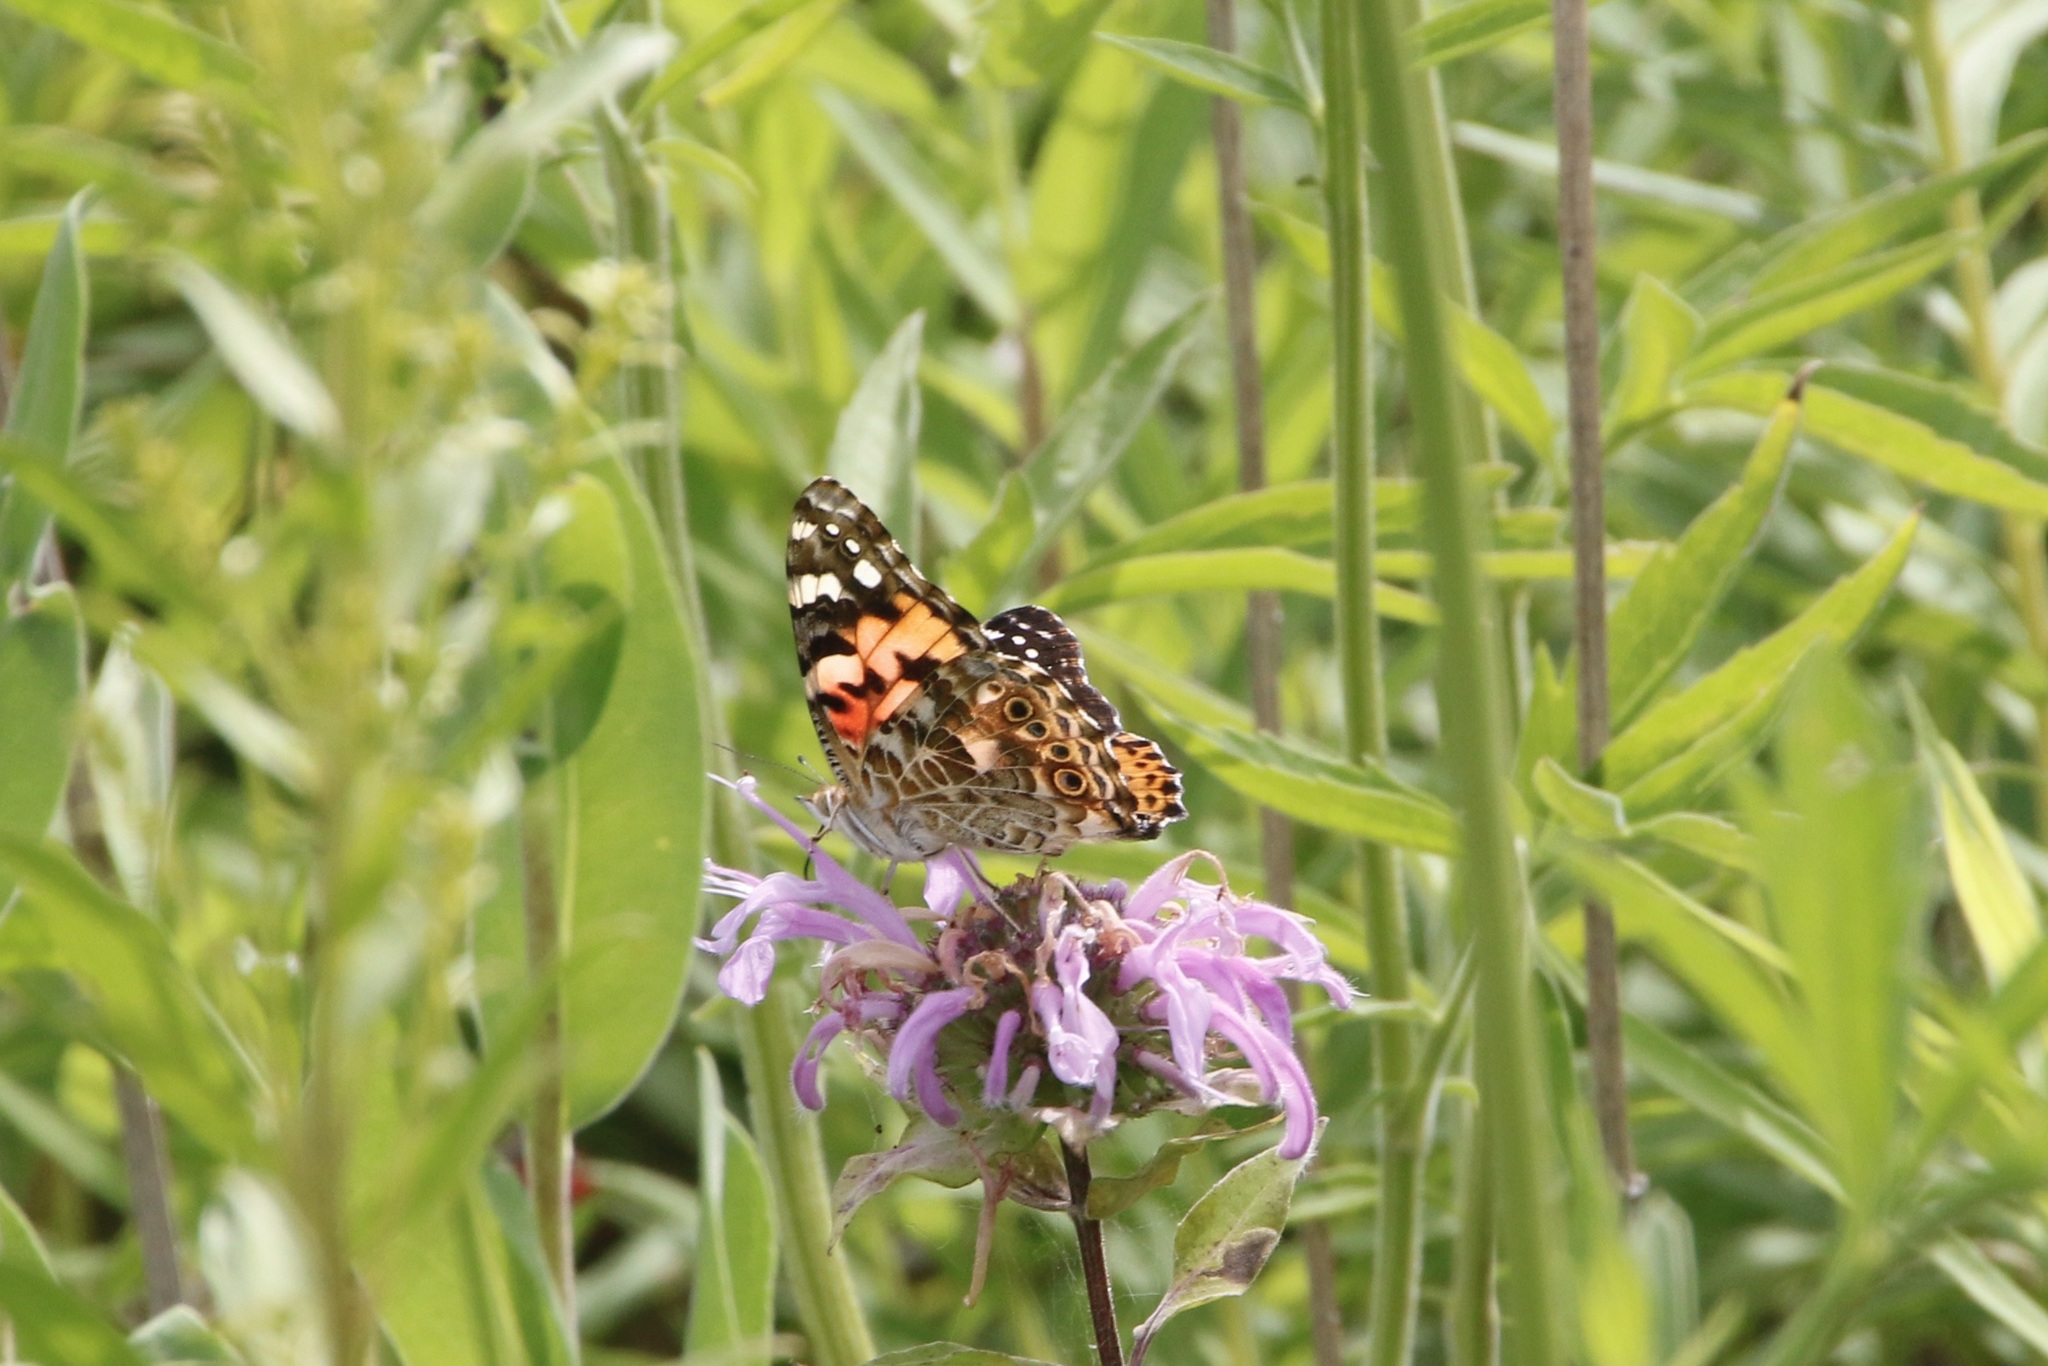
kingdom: Animalia
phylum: Arthropoda
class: Insecta
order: Lepidoptera
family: Nymphalidae
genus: Vanessa
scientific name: Vanessa cardui
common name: Painted lady
